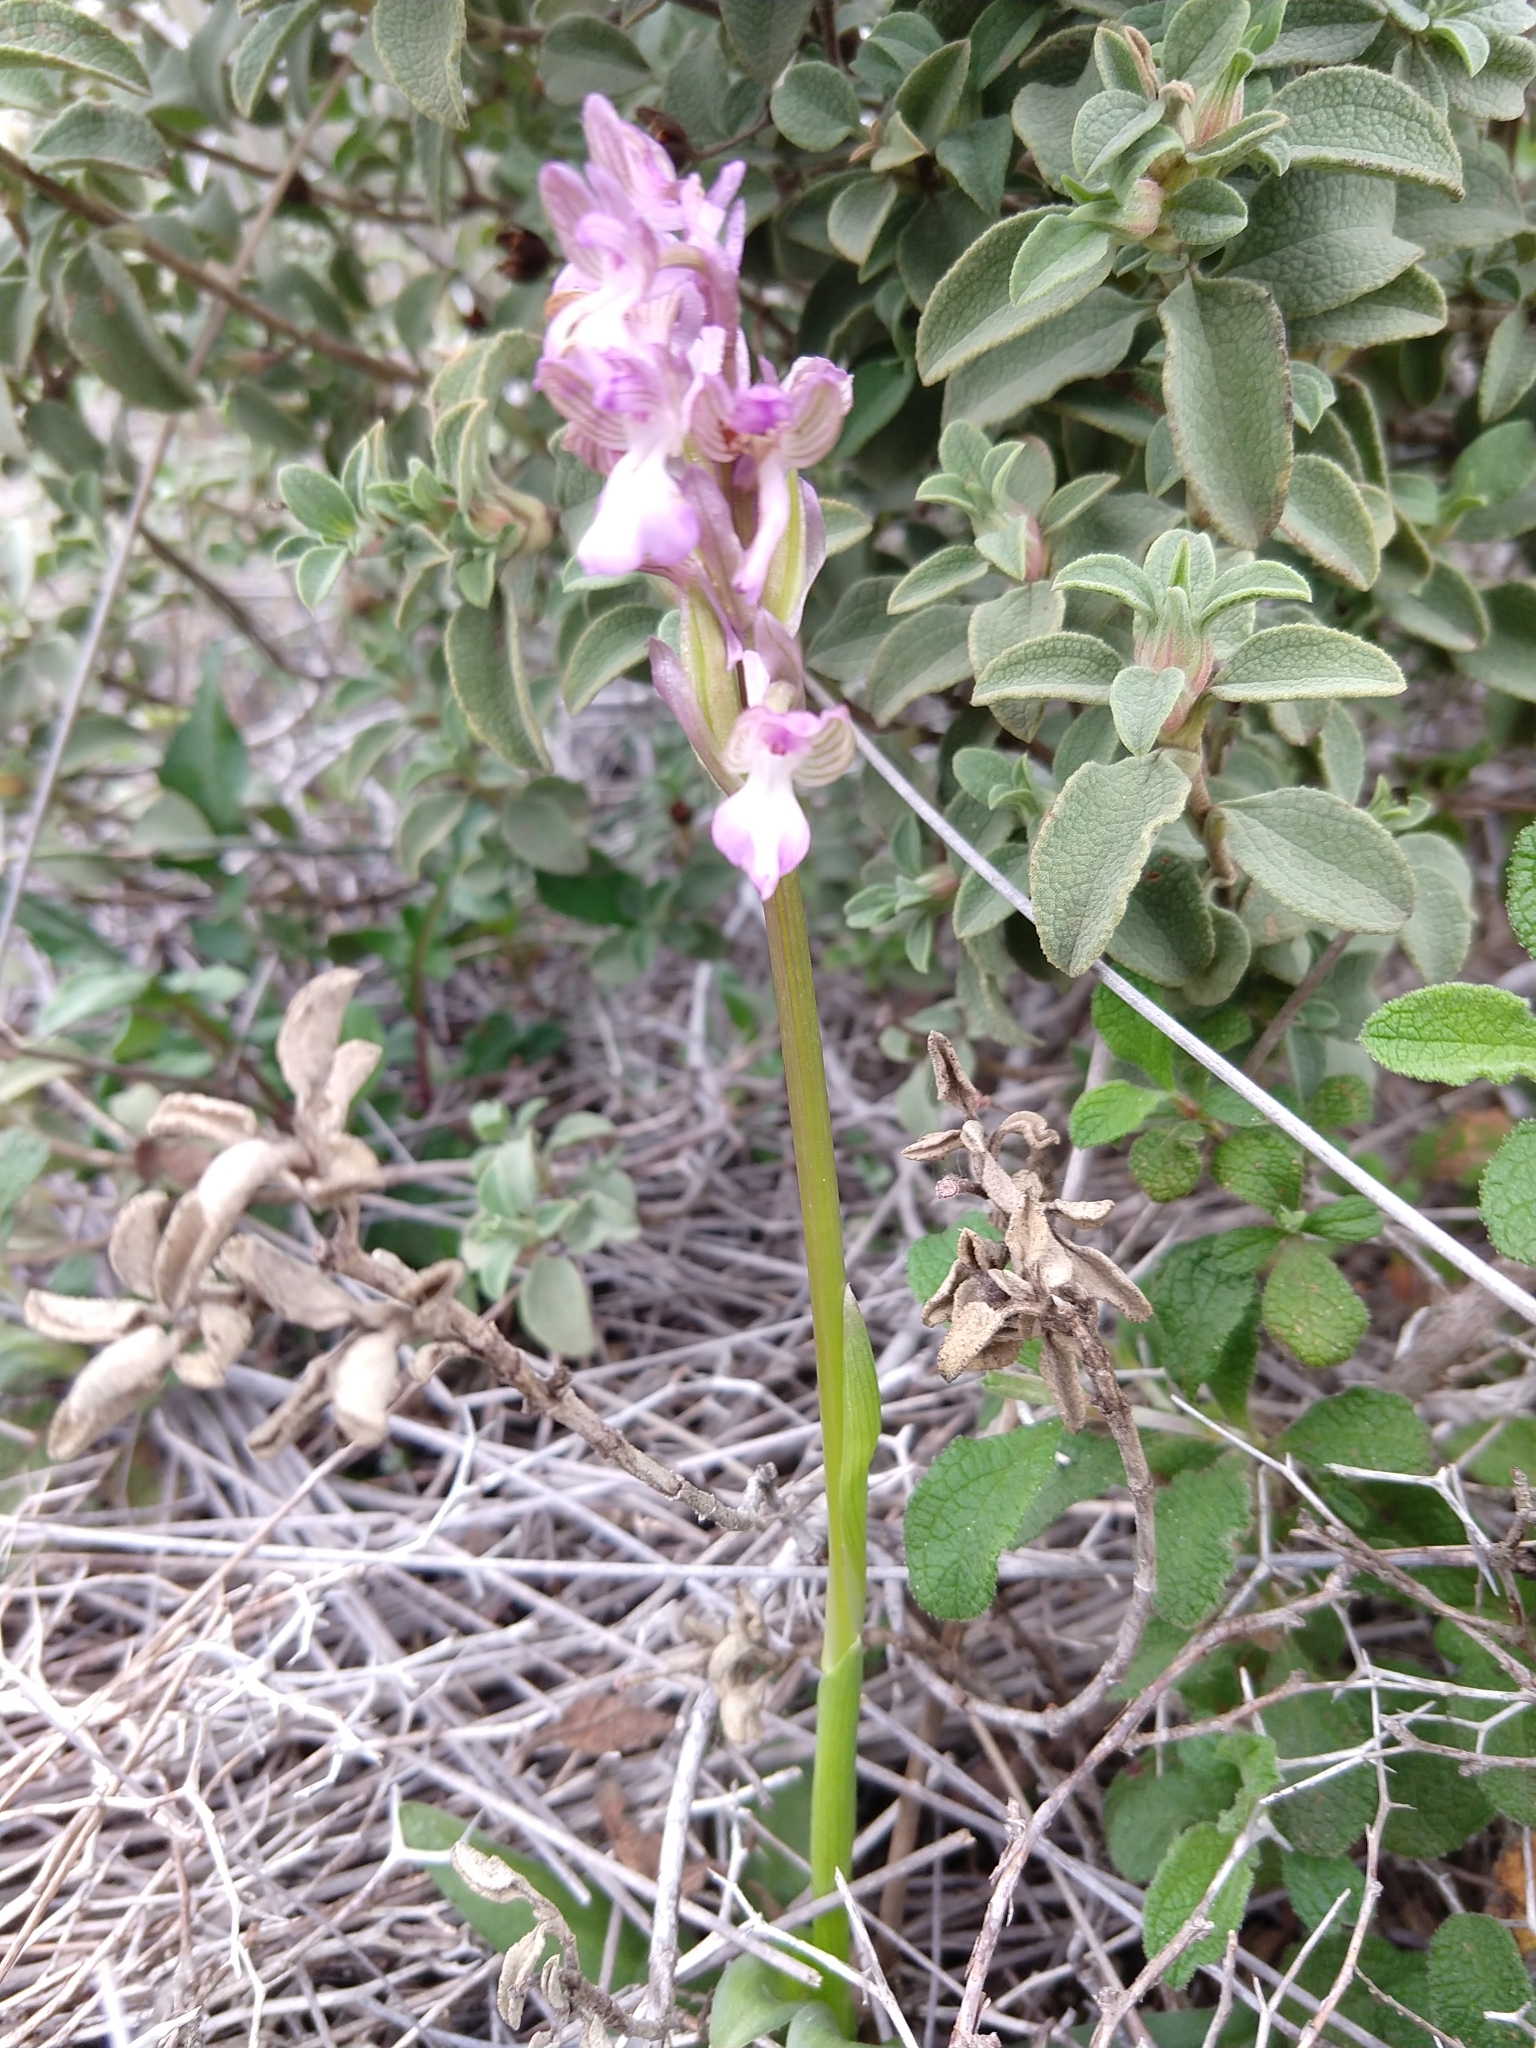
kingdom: Plantae
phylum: Tracheophyta
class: Liliopsida
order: Asparagales
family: Orchidaceae
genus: Anacamptis
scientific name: Anacamptis collina
